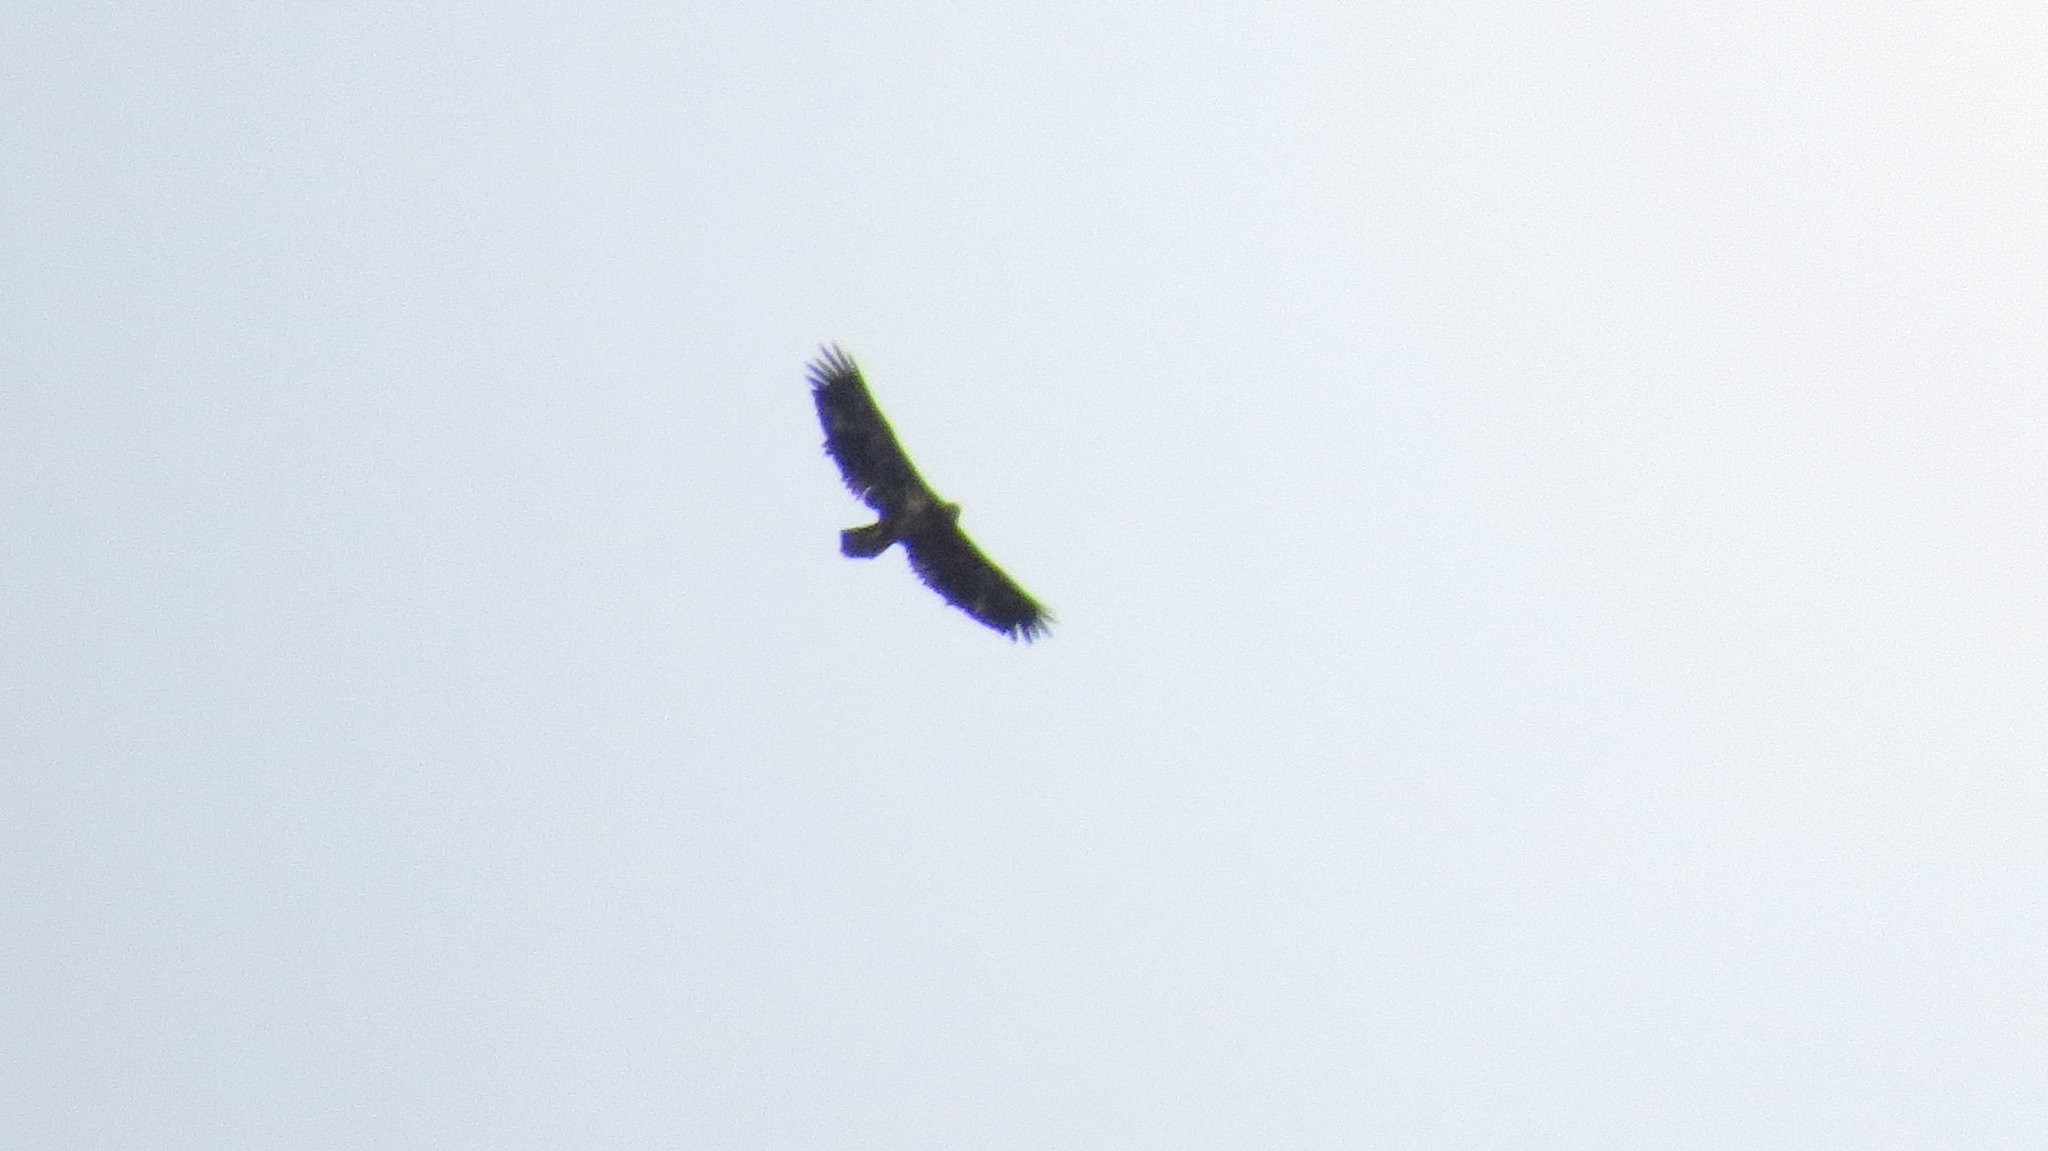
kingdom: Animalia
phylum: Chordata
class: Aves
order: Accipitriformes
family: Accipitridae
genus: Haliaeetus
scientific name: Haliaeetus leucocephalus
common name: Bald eagle
